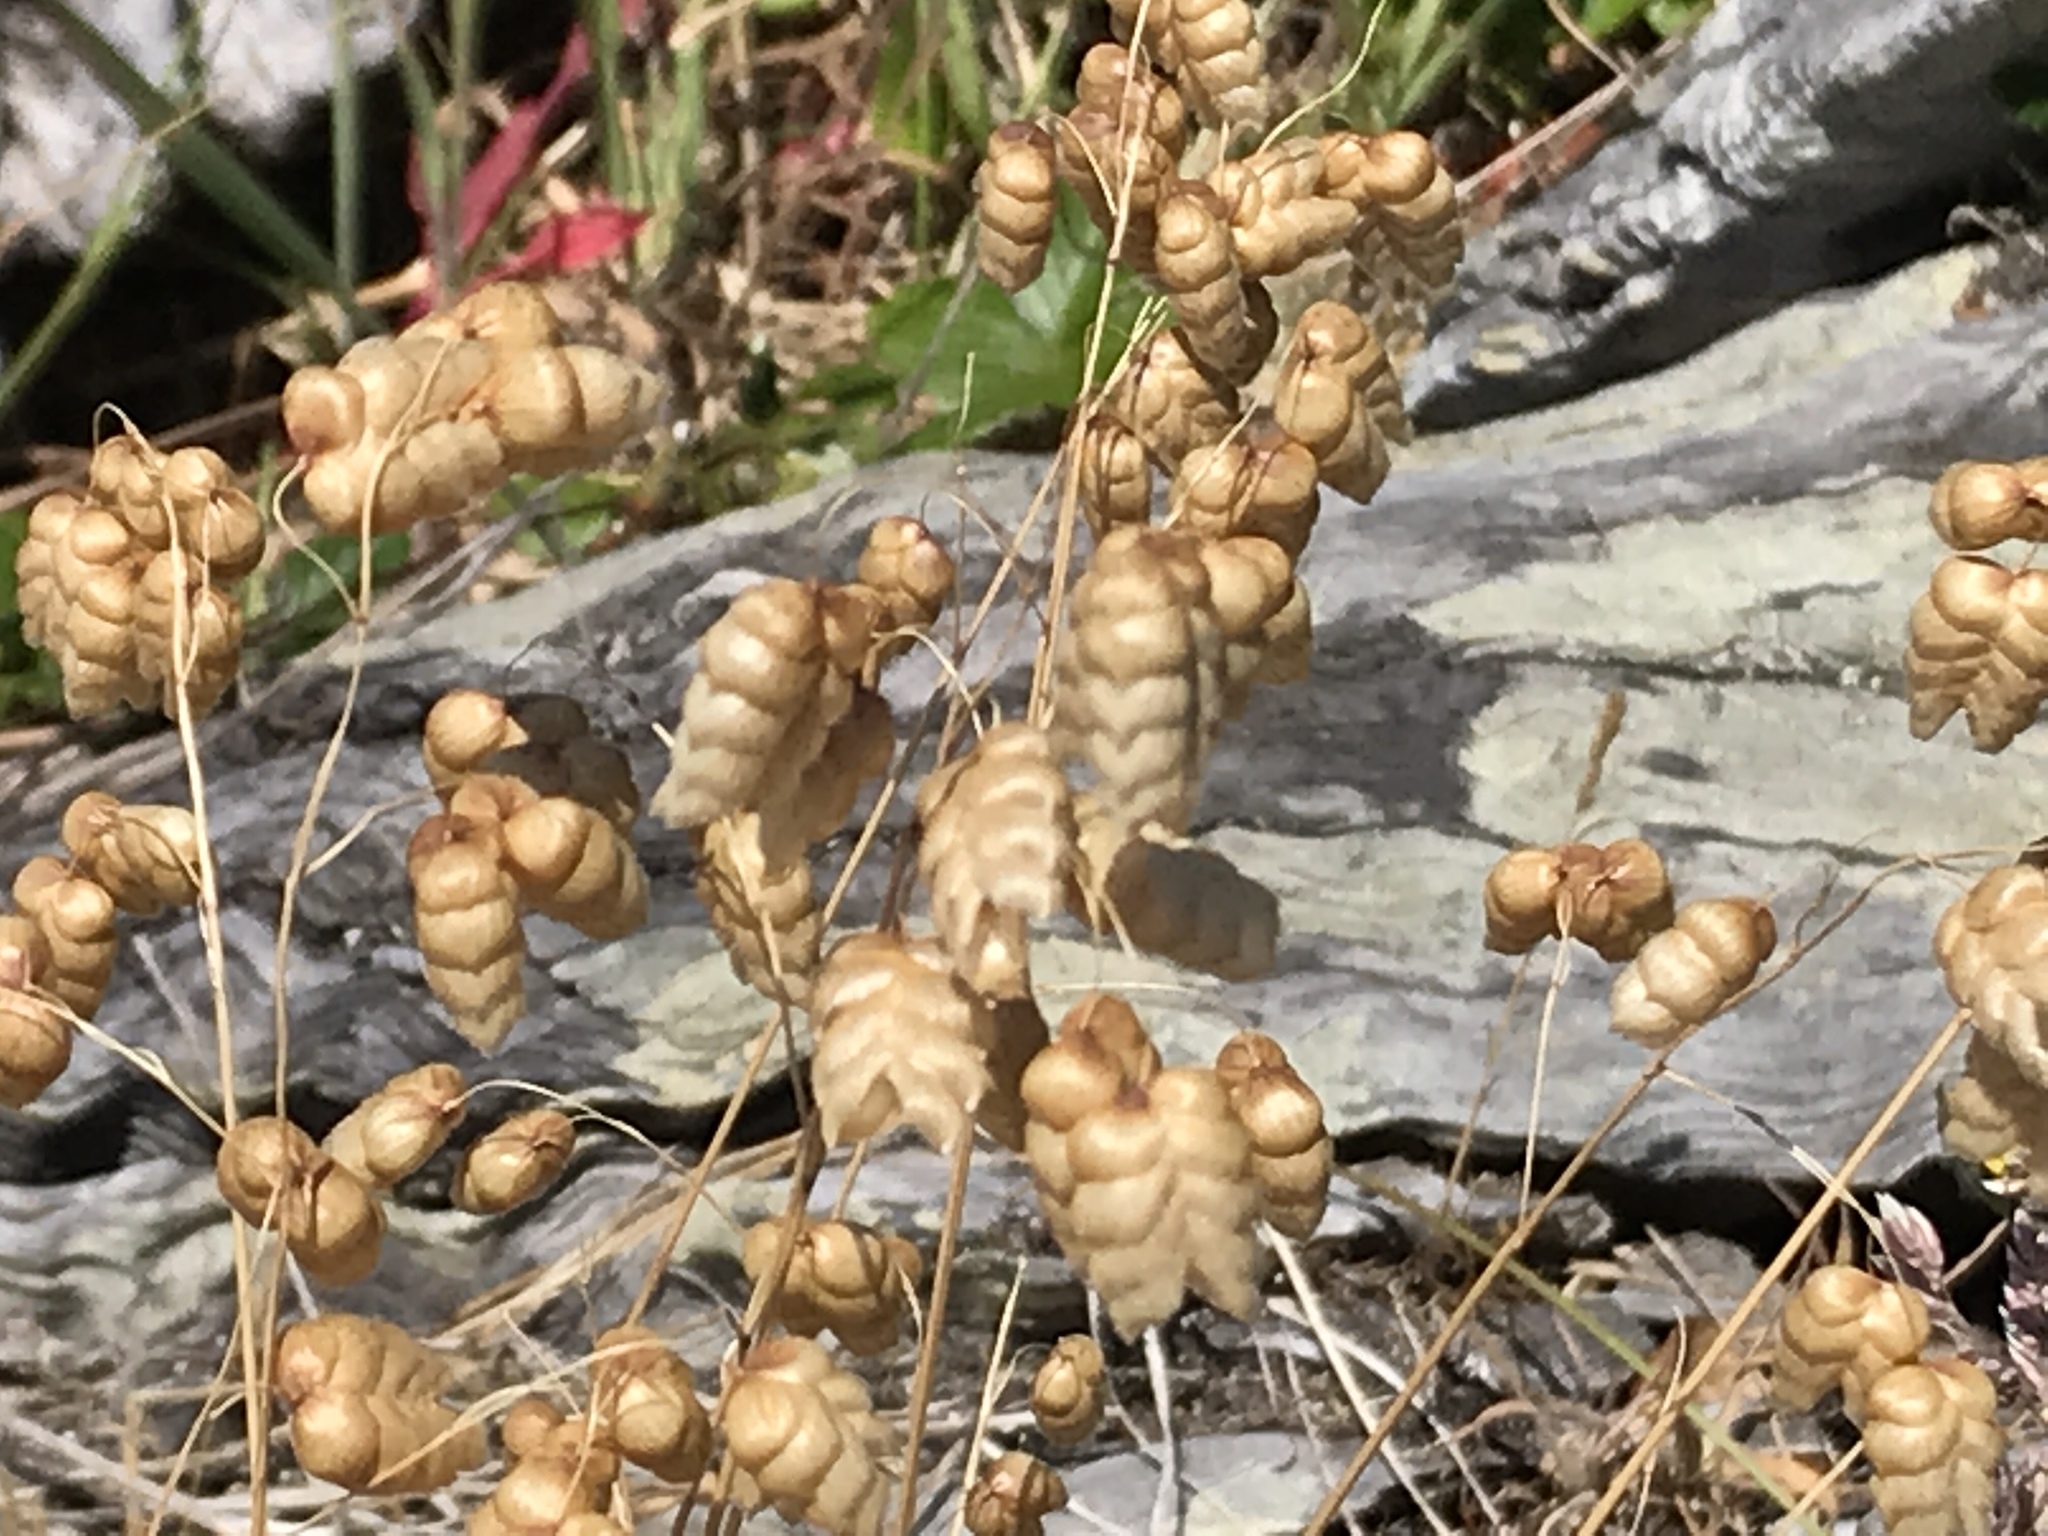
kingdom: Plantae
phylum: Tracheophyta
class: Liliopsida
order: Poales
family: Poaceae
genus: Briza
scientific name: Briza maxima
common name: Big quakinggrass
